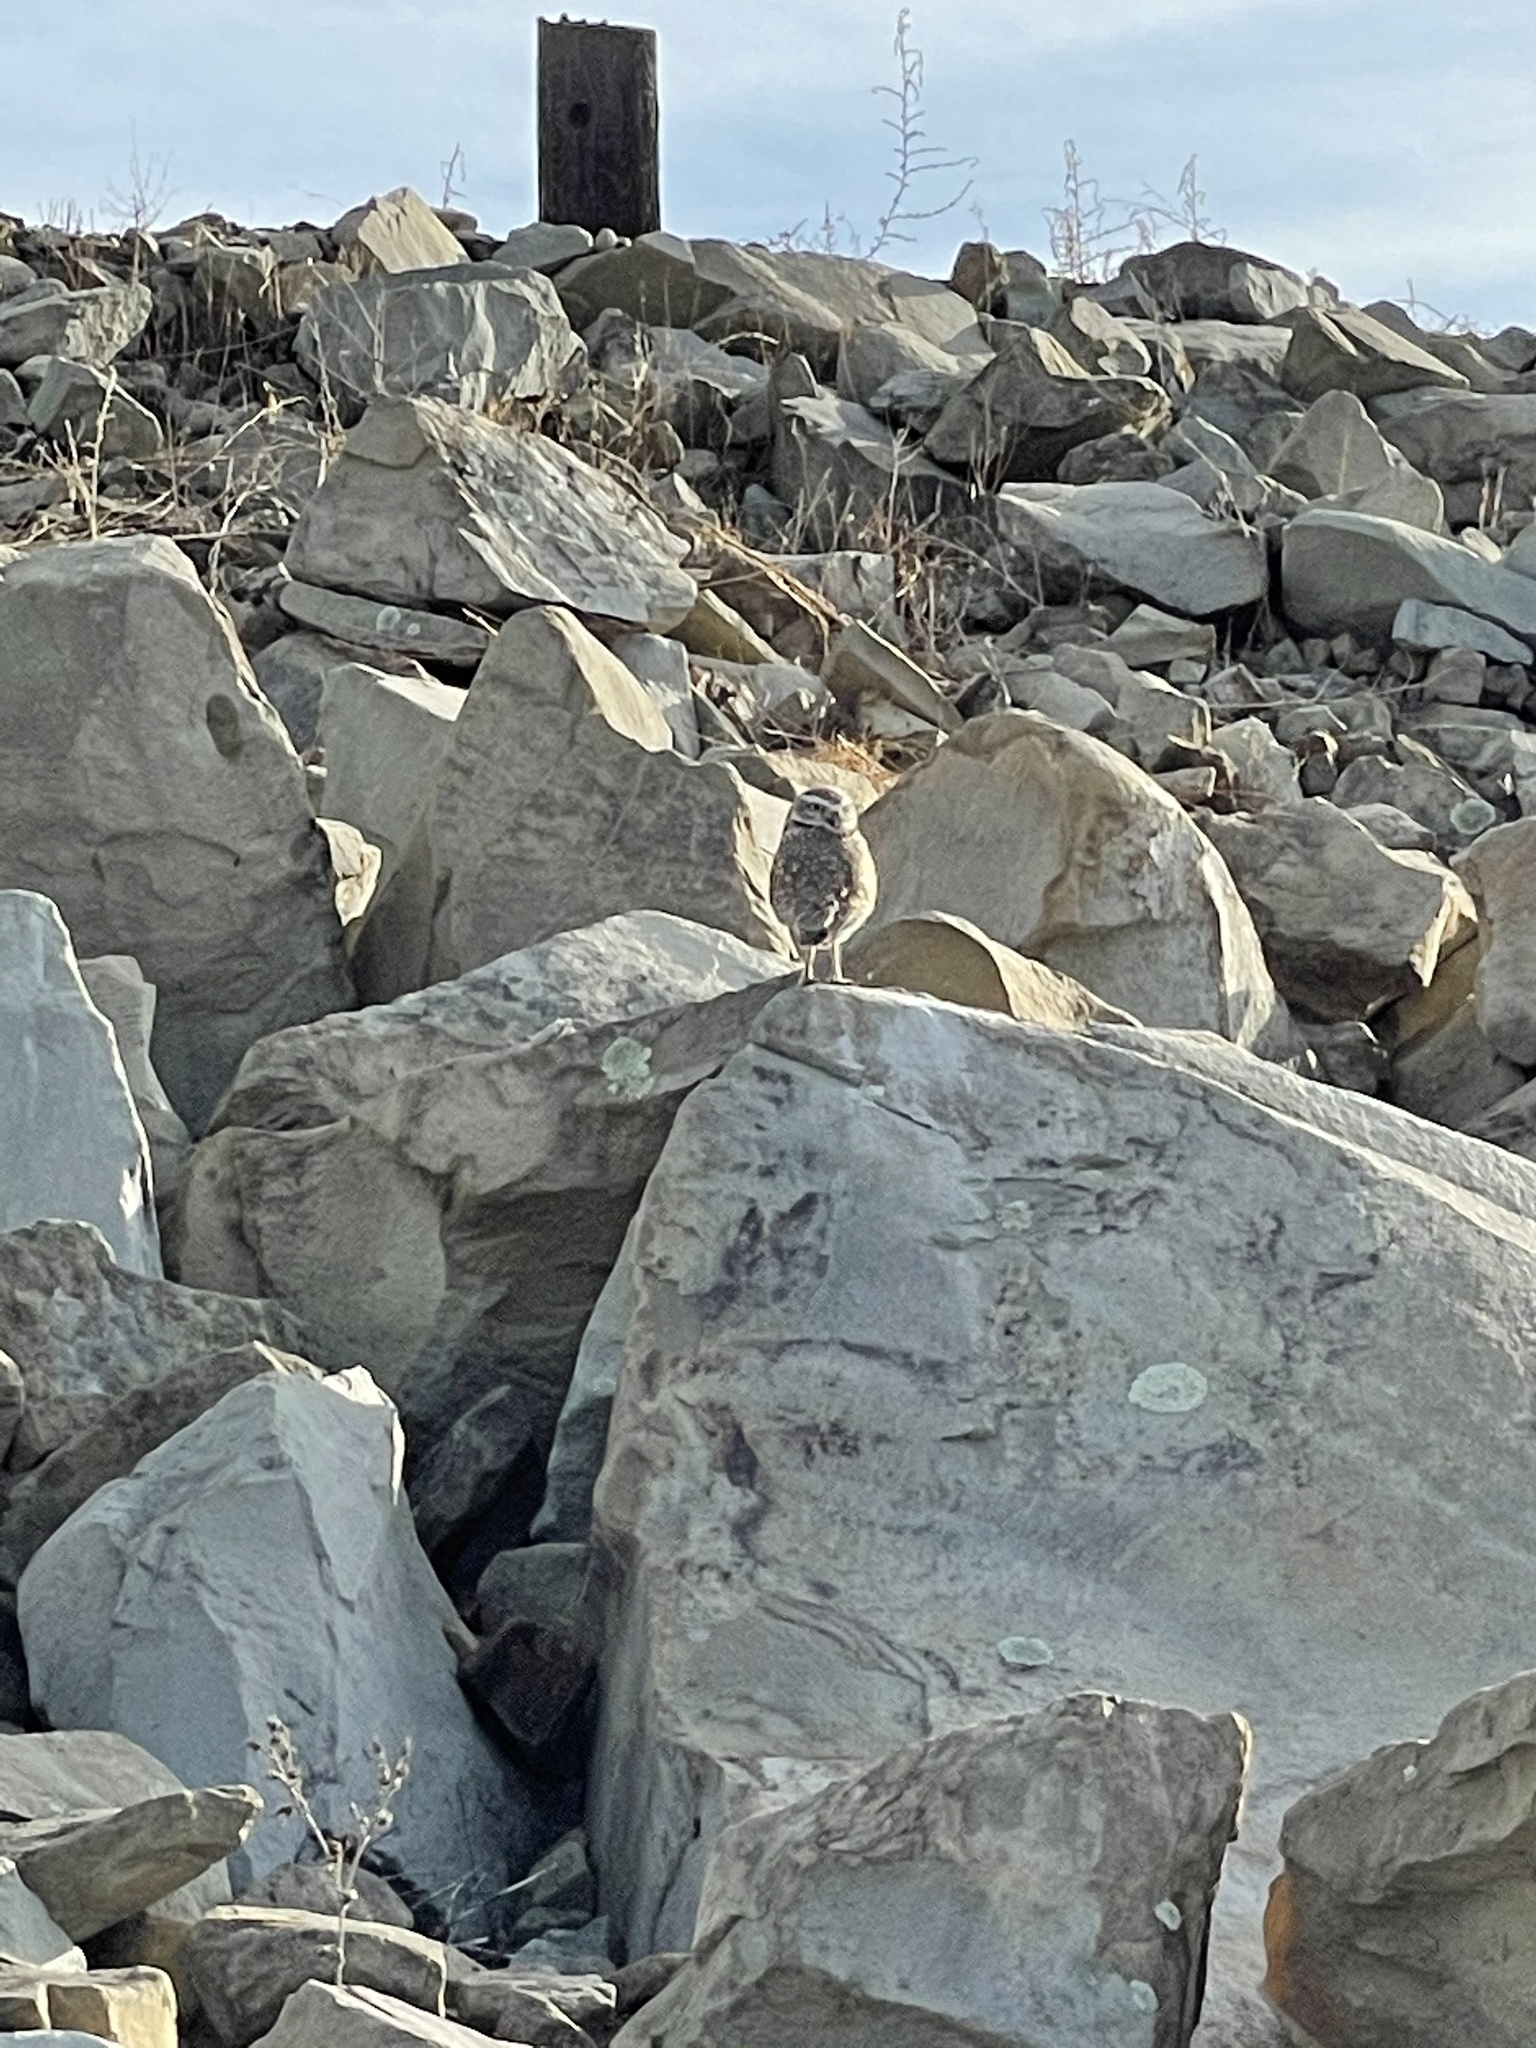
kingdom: Animalia
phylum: Chordata
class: Aves
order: Strigiformes
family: Strigidae
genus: Athene
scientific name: Athene cunicularia
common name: Burrowing owl
